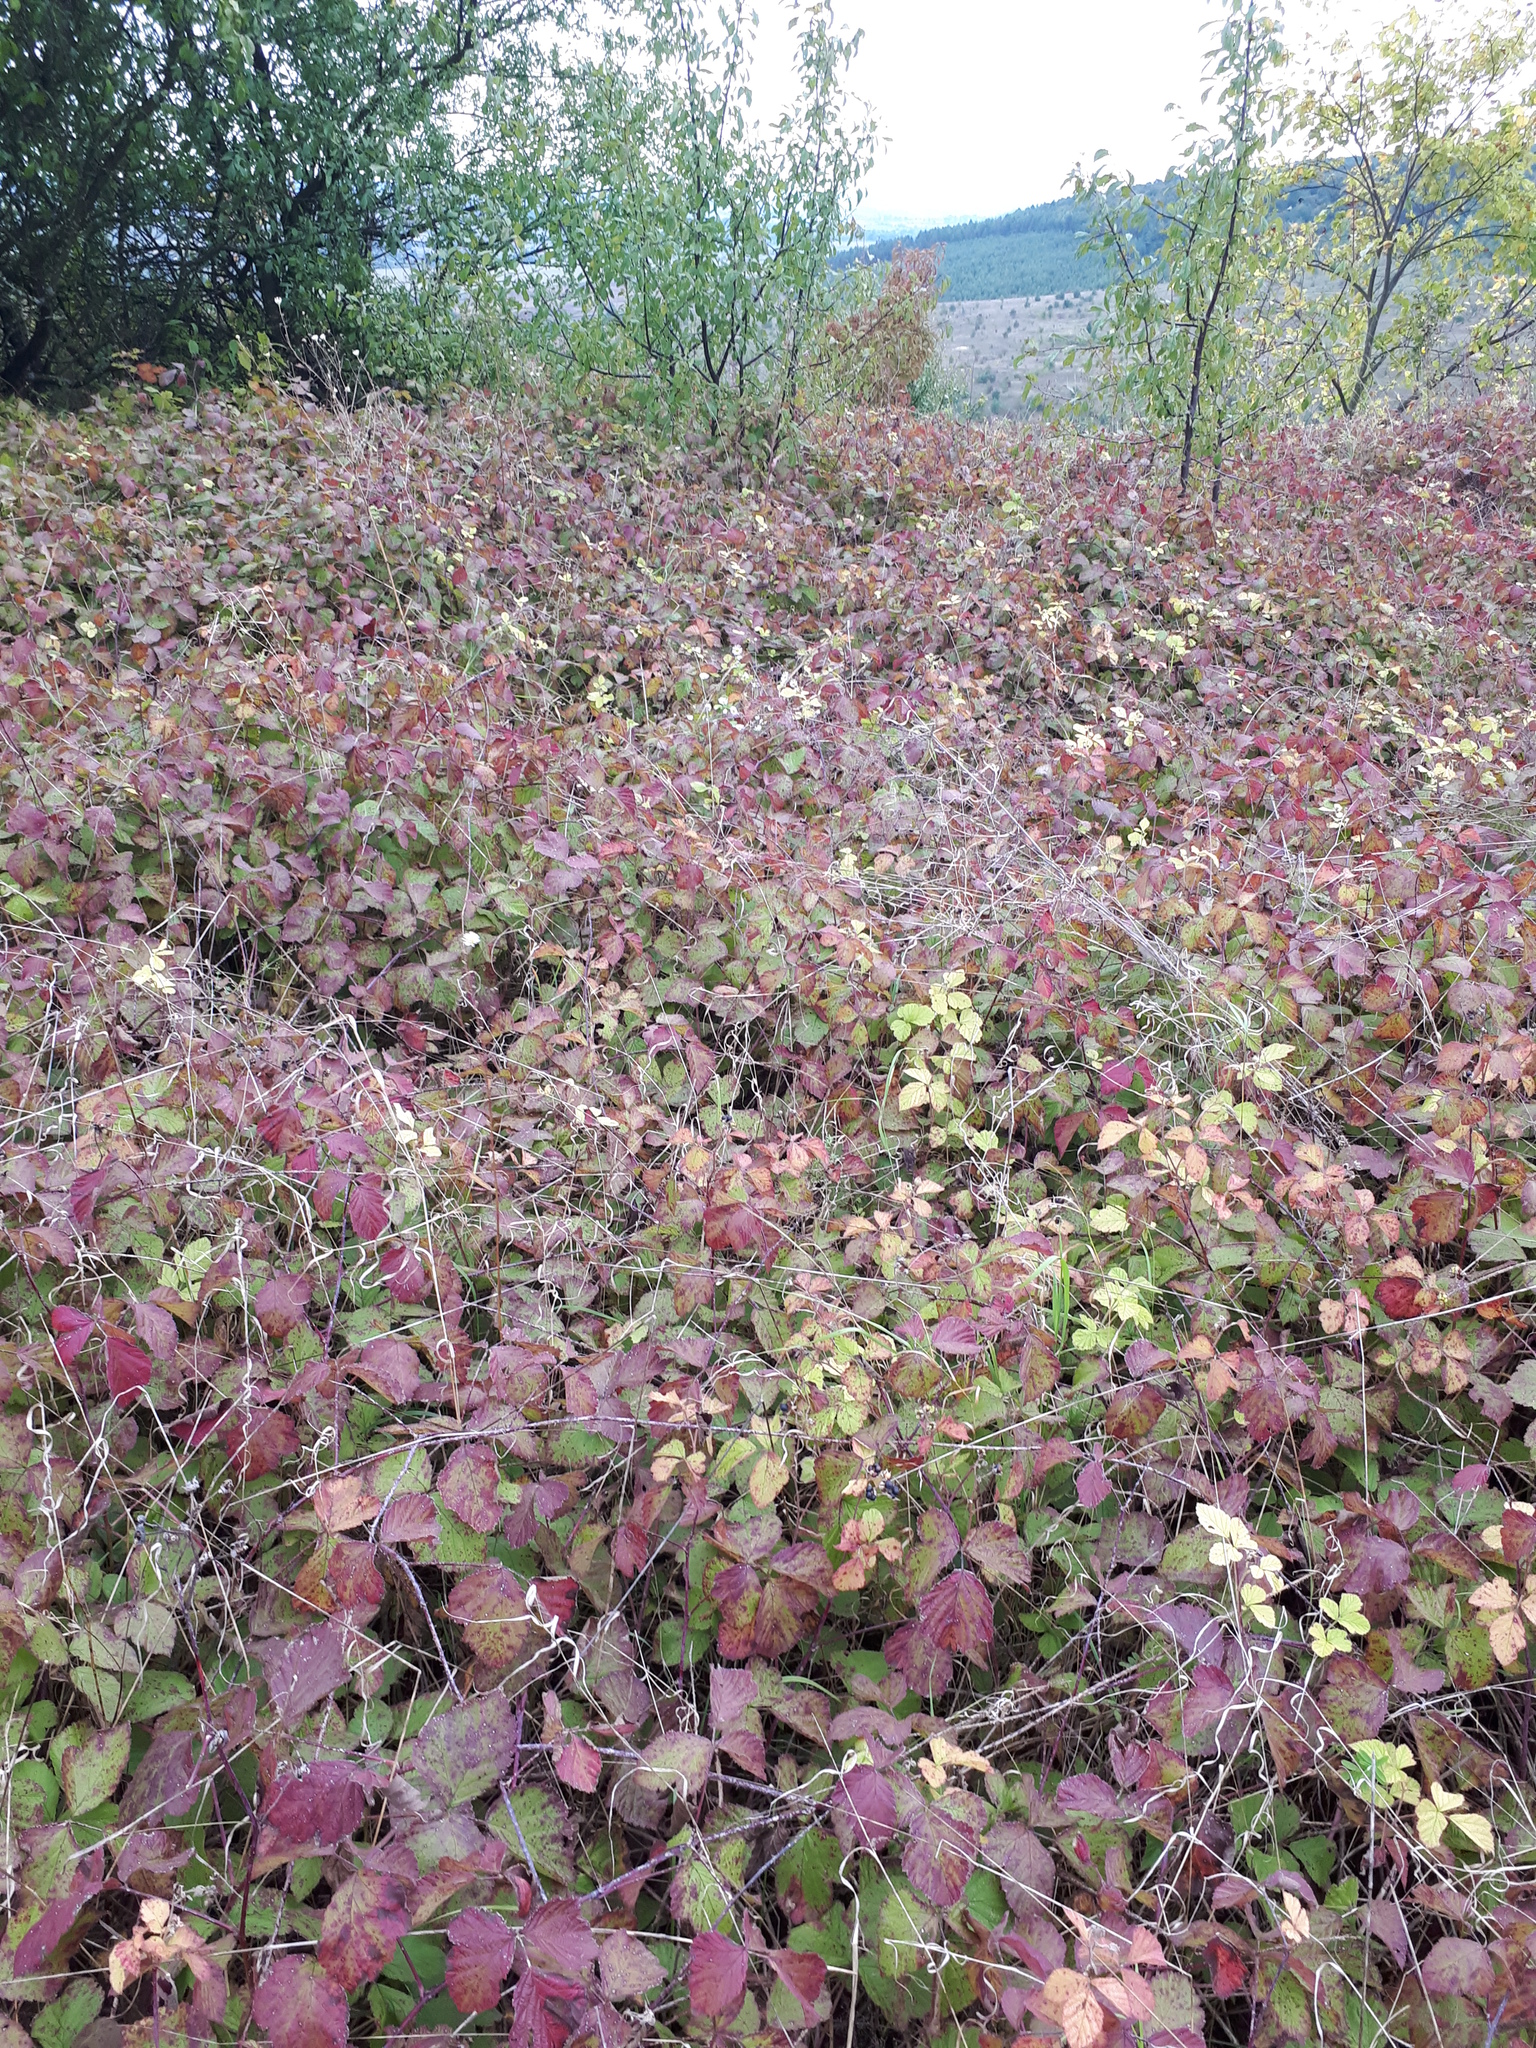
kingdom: Plantae
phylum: Tracheophyta
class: Magnoliopsida
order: Rosales
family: Rosaceae
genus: Rubus
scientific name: Rubus caesius
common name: Dewberry
